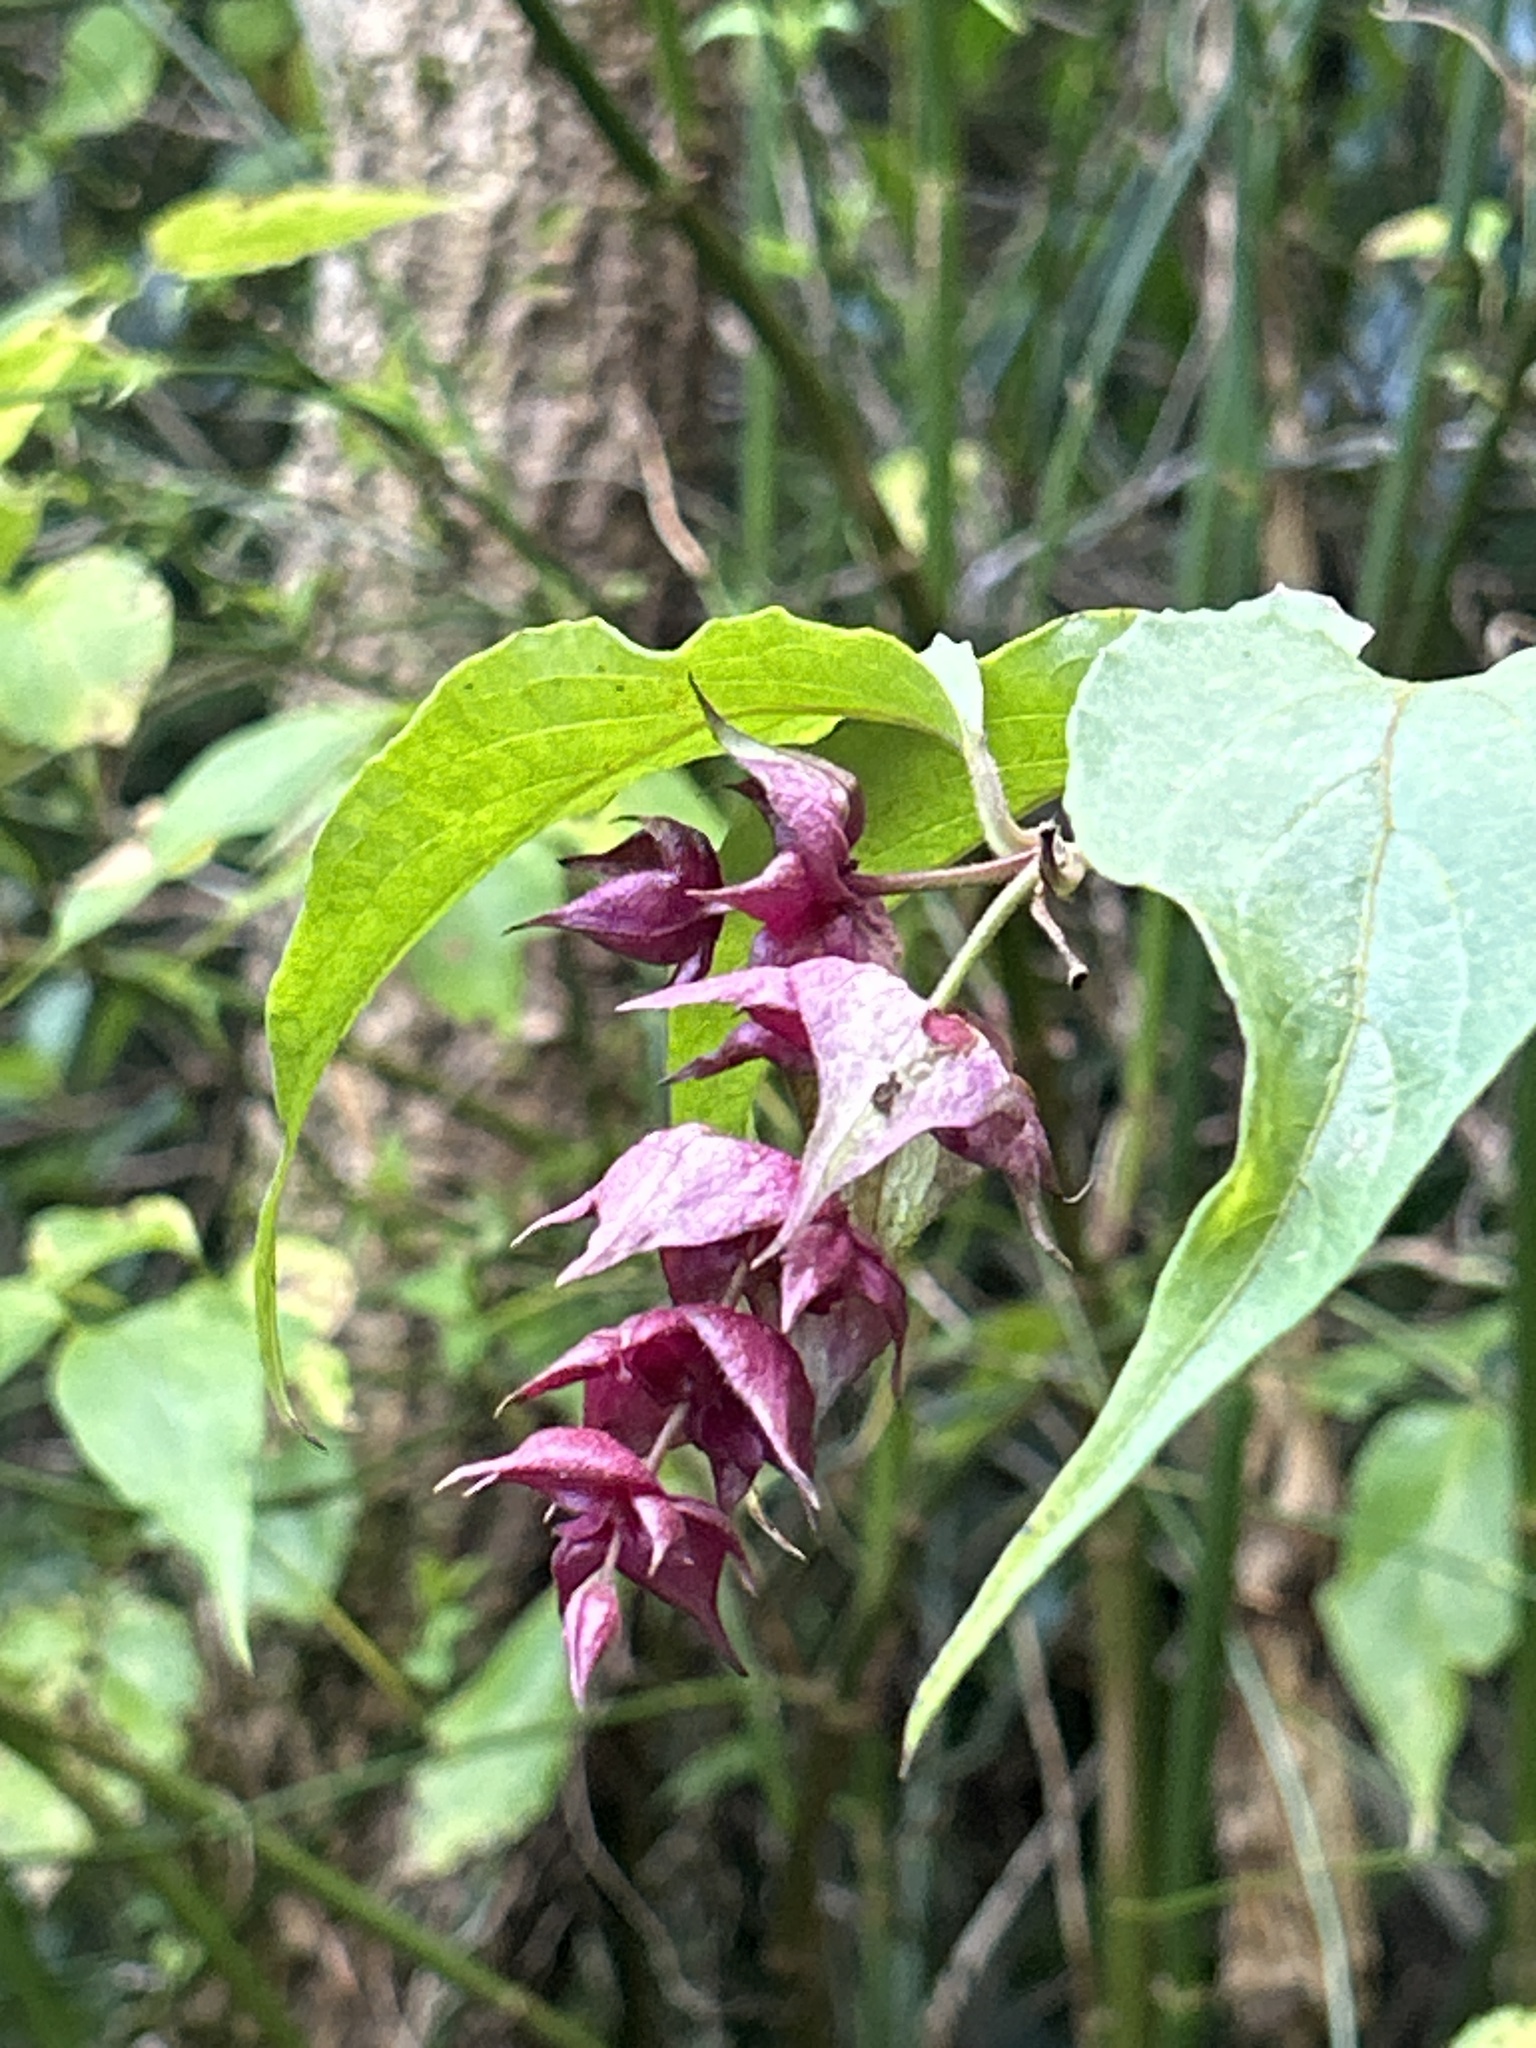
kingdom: Plantae
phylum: Tracheophyta
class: Magnoliopsida
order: Dipsacales
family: Caprifoliaceae
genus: Leycesteria
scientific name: Leycesteria formosa
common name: Himalayan honeysuckle
